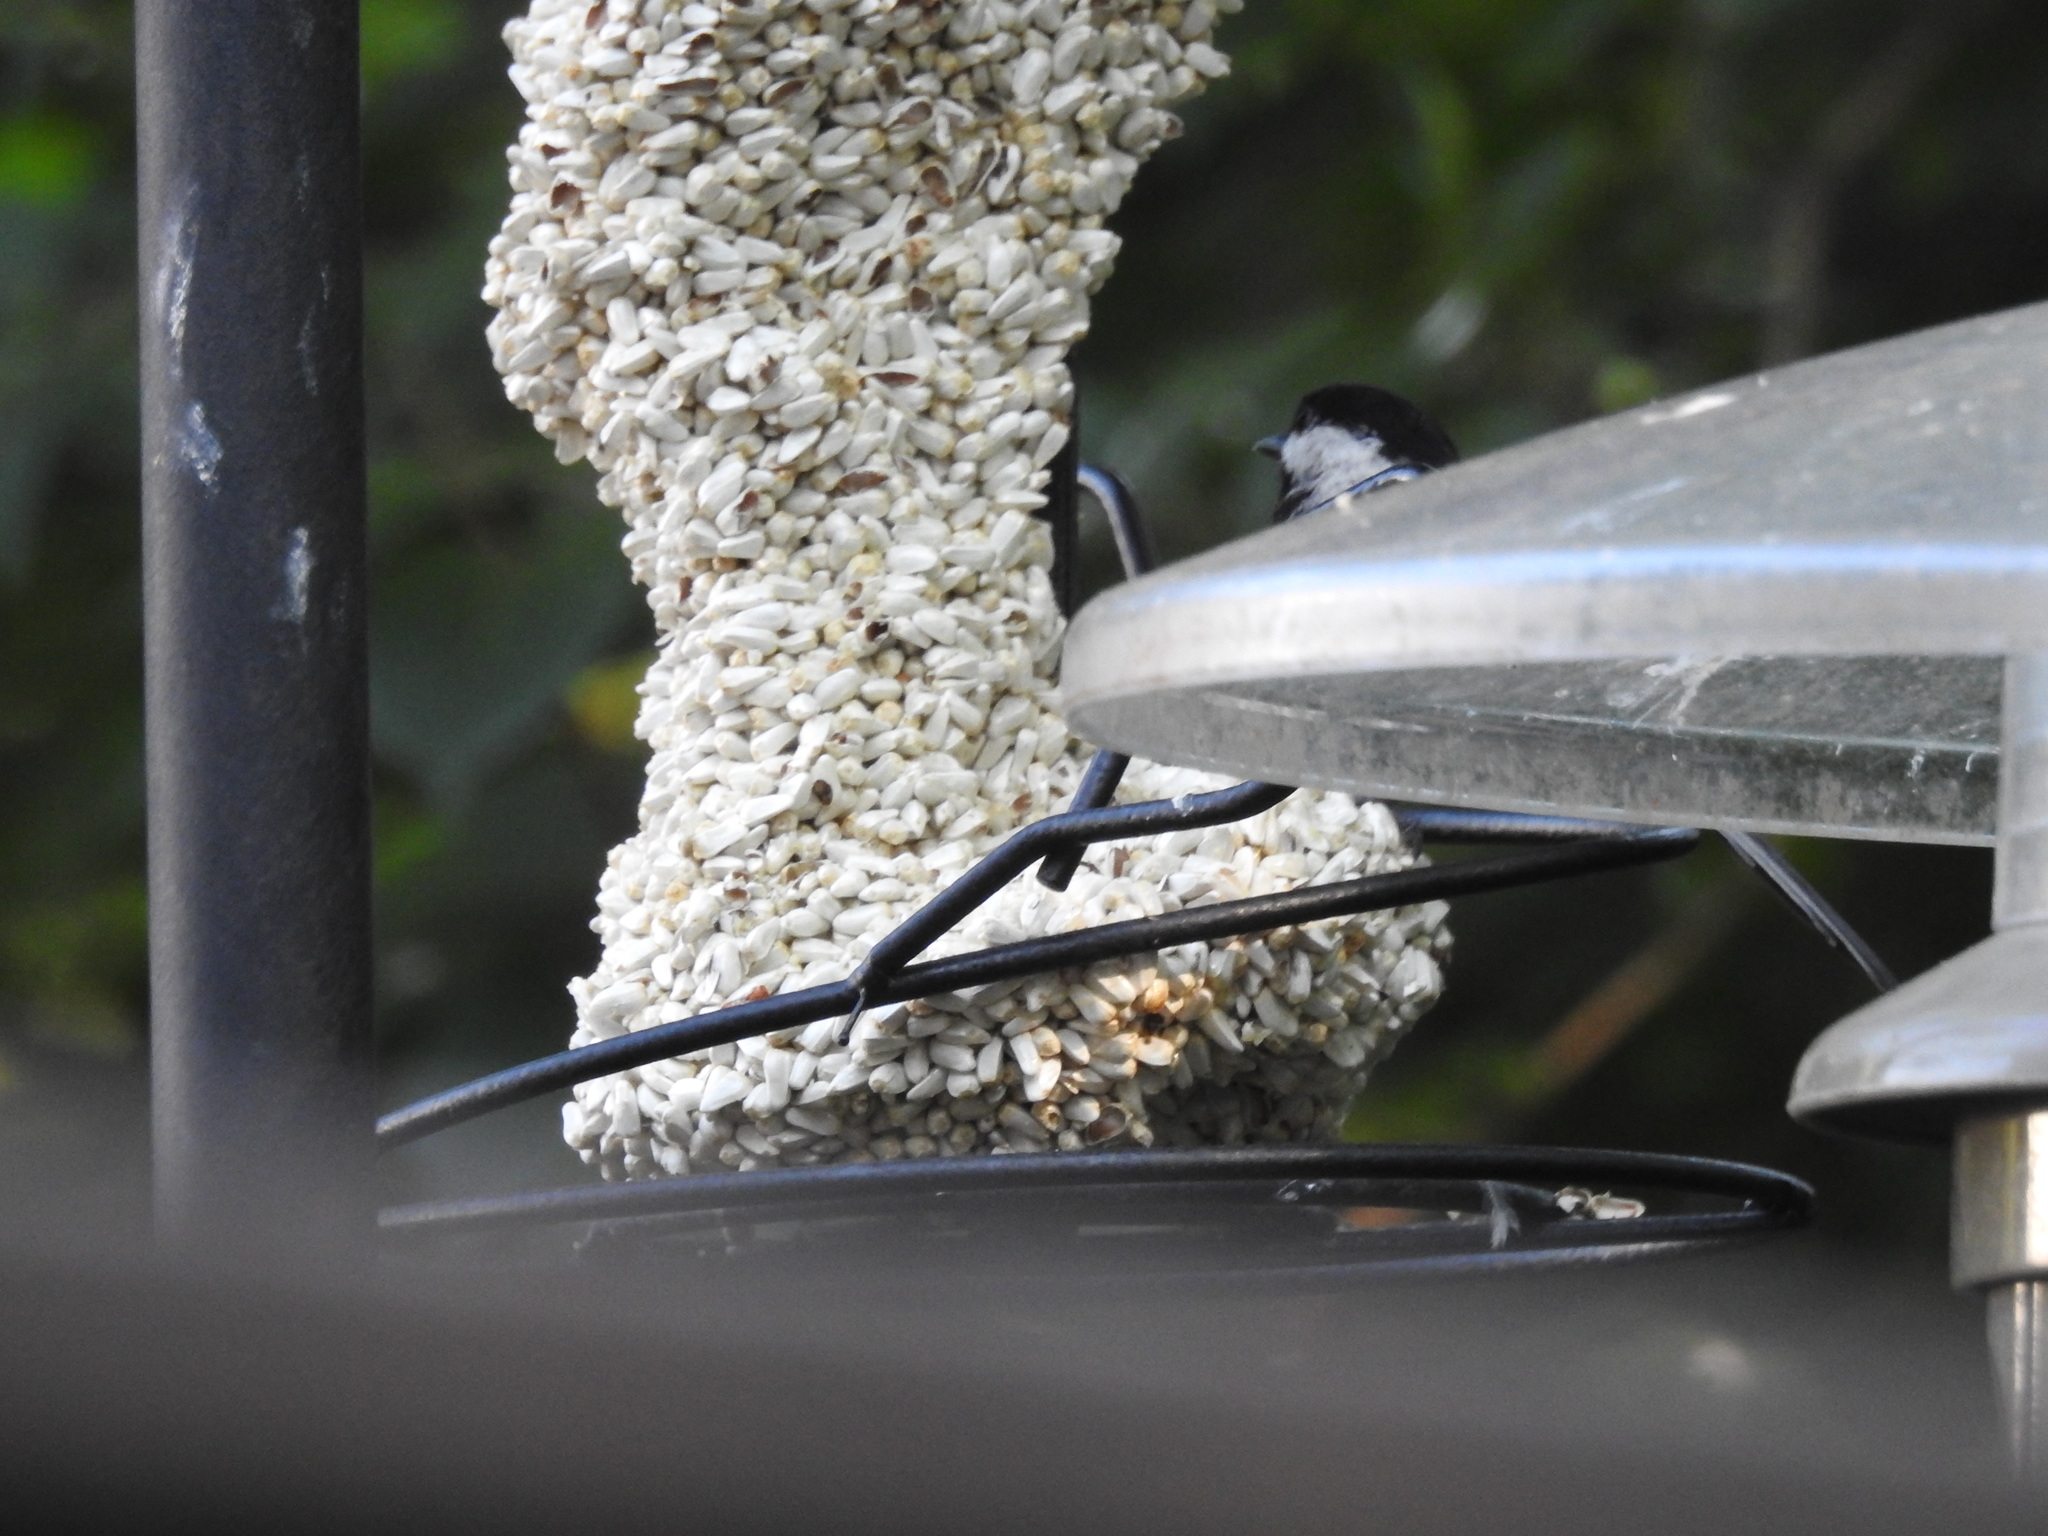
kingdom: Animalia
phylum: Chordata
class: Aves
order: Passeriformes
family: Paridae
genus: Poecile
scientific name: Poecile carolinensis
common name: Carolina chickadee
